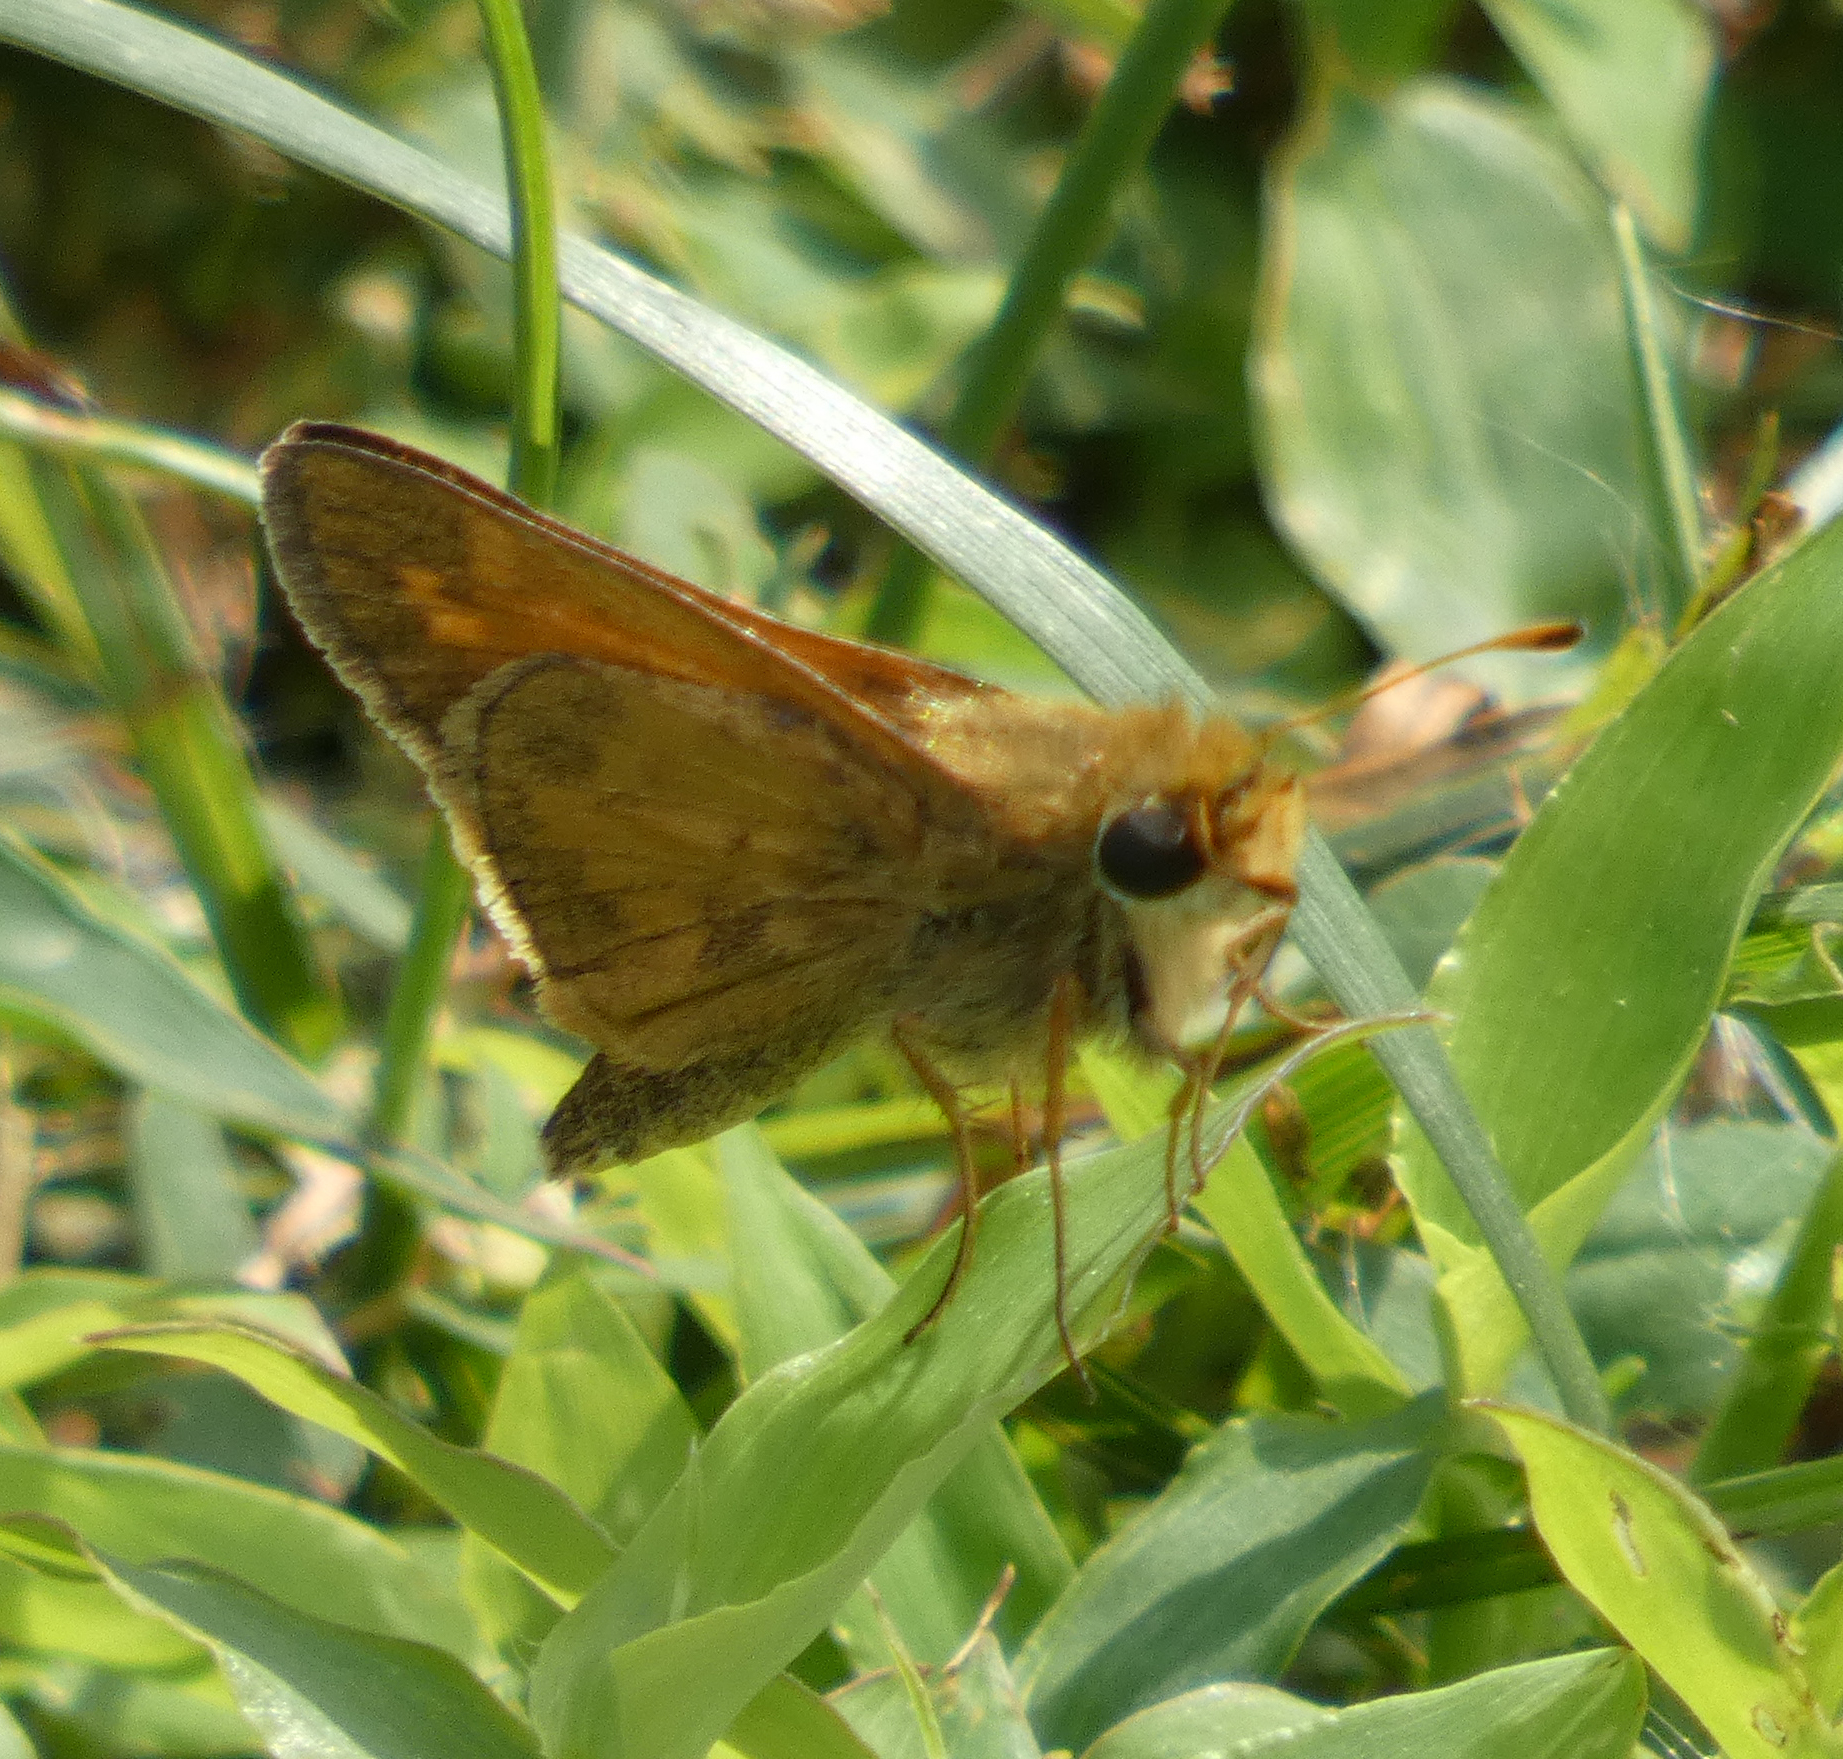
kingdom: Animalia
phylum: Arthropoda
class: Insecta
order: Lepidoptera
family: Hesperiidae
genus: Atalopedes
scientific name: Atalopedes
